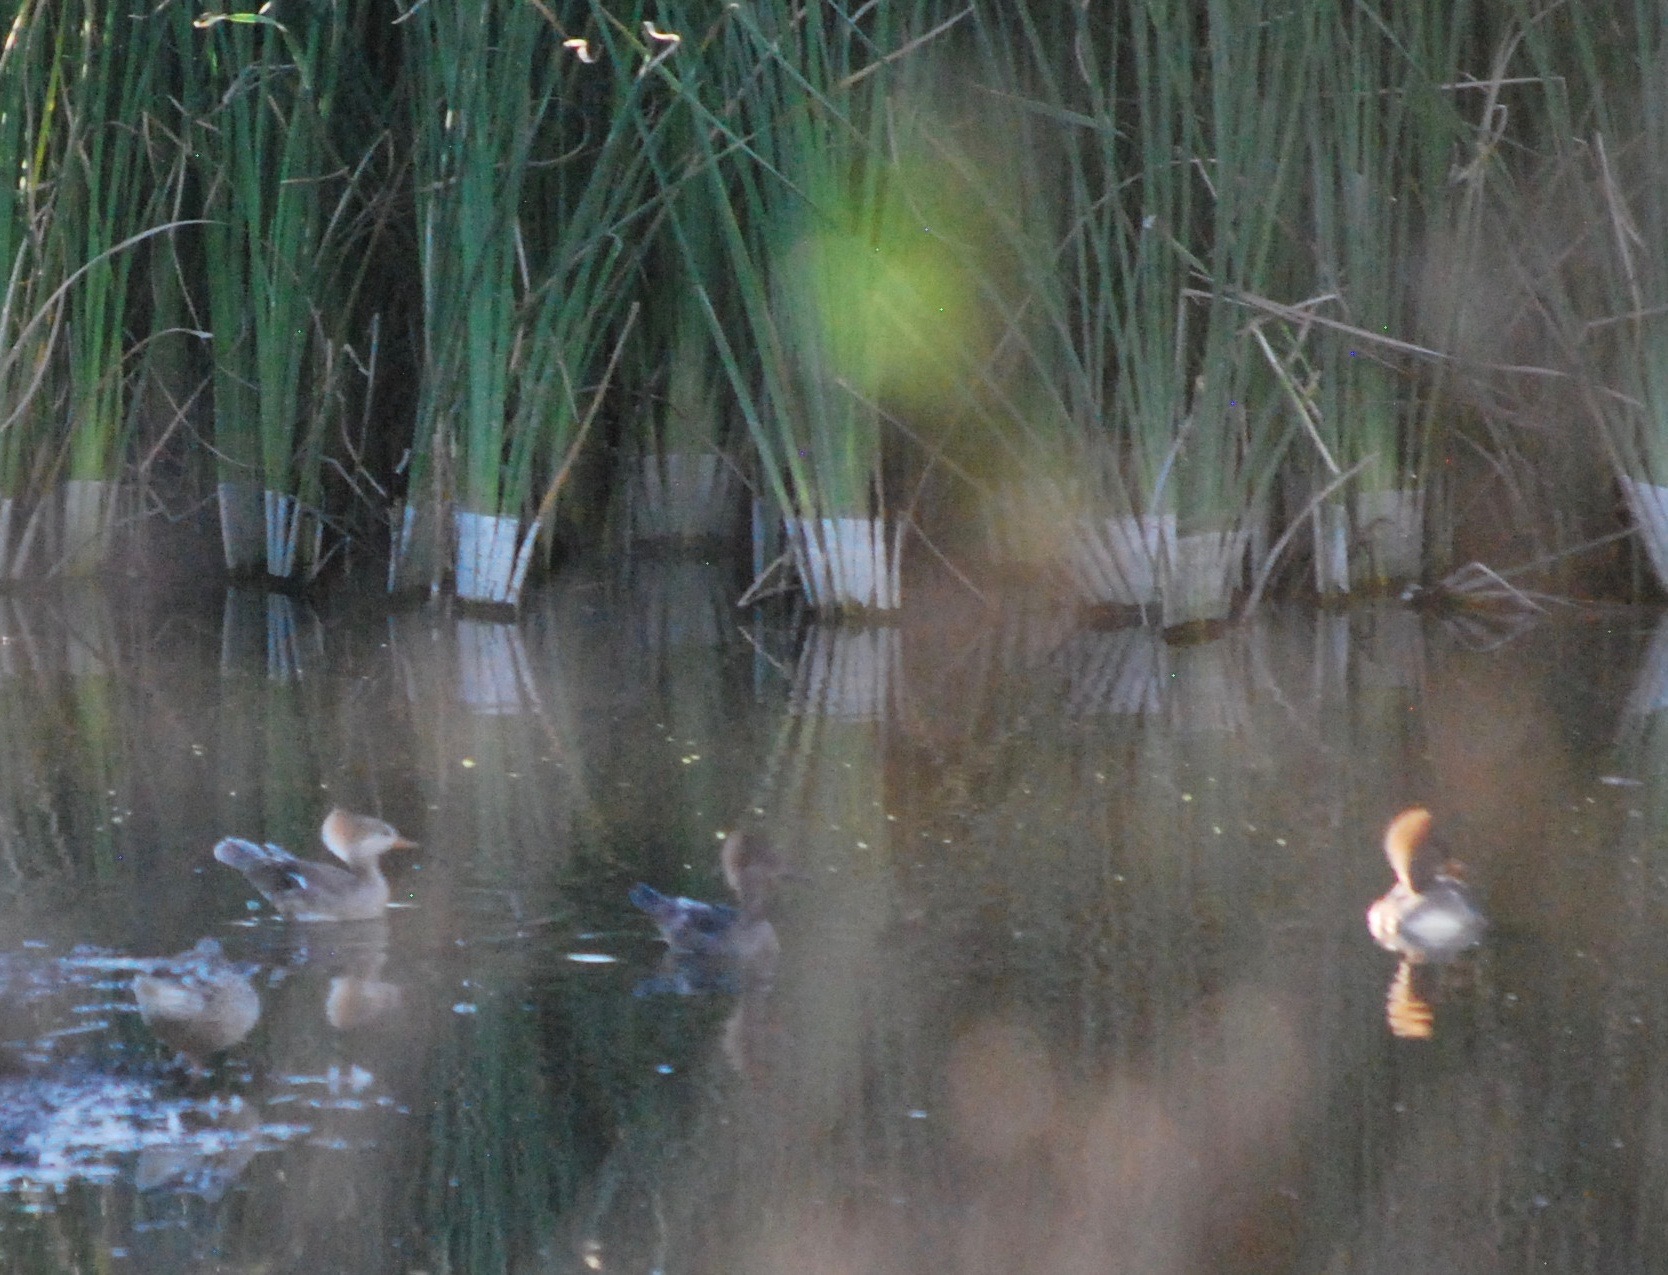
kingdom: Animalia
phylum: Chordata
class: Aves
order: Anseriformes
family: Anatidae
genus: Lophodytes
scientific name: Lophodytes cucullatus
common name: Hooded merganser
